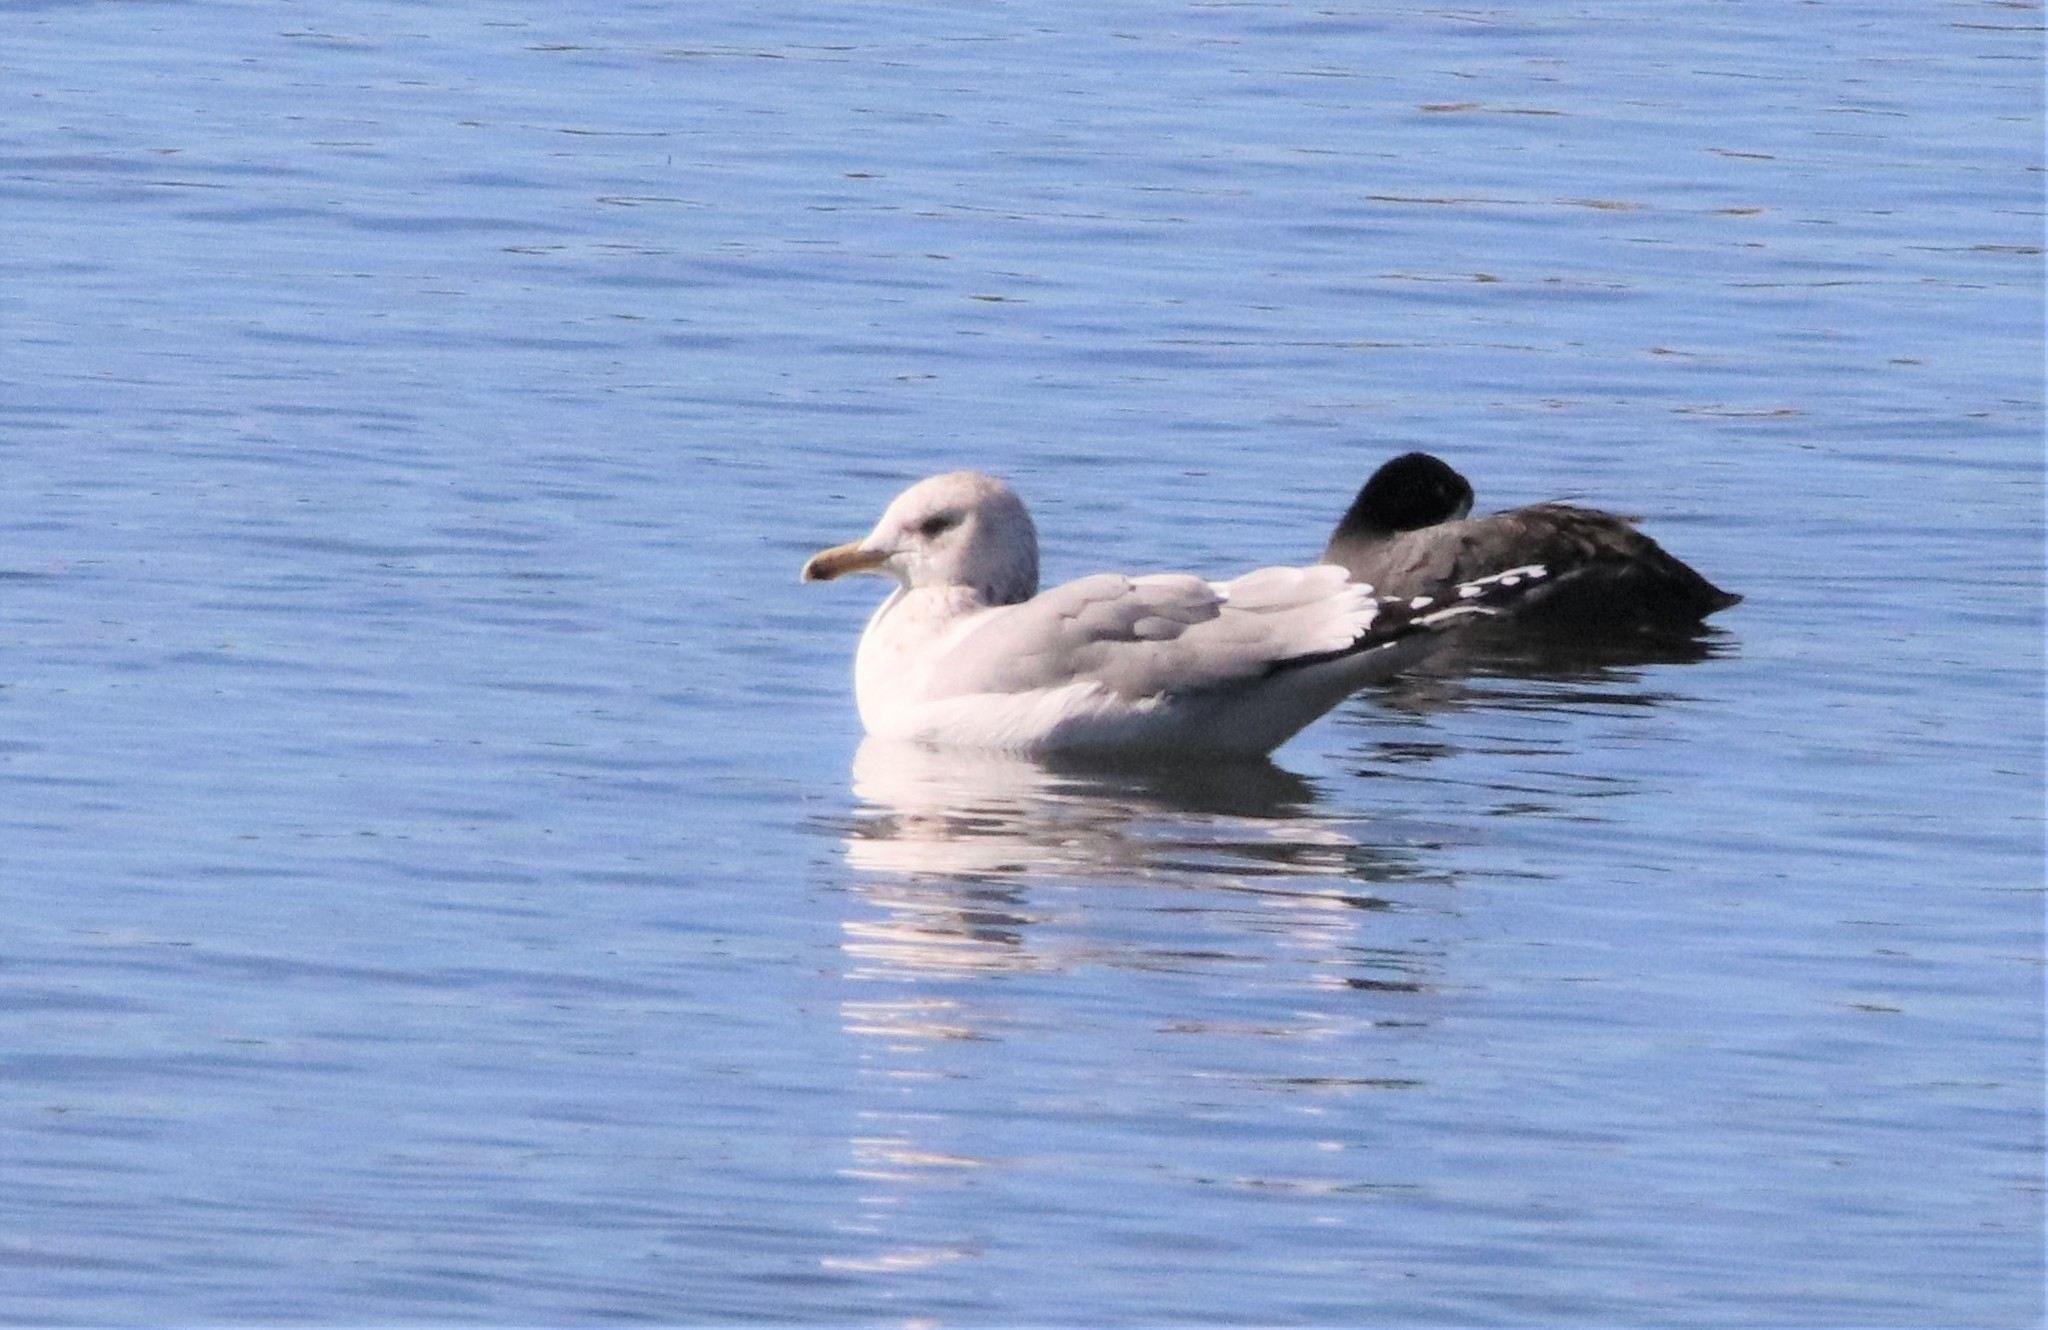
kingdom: Animalia
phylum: Chordata
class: Aves
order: Charadriiformes
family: Laridae
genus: Larus
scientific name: Larus californicus
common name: California gull
